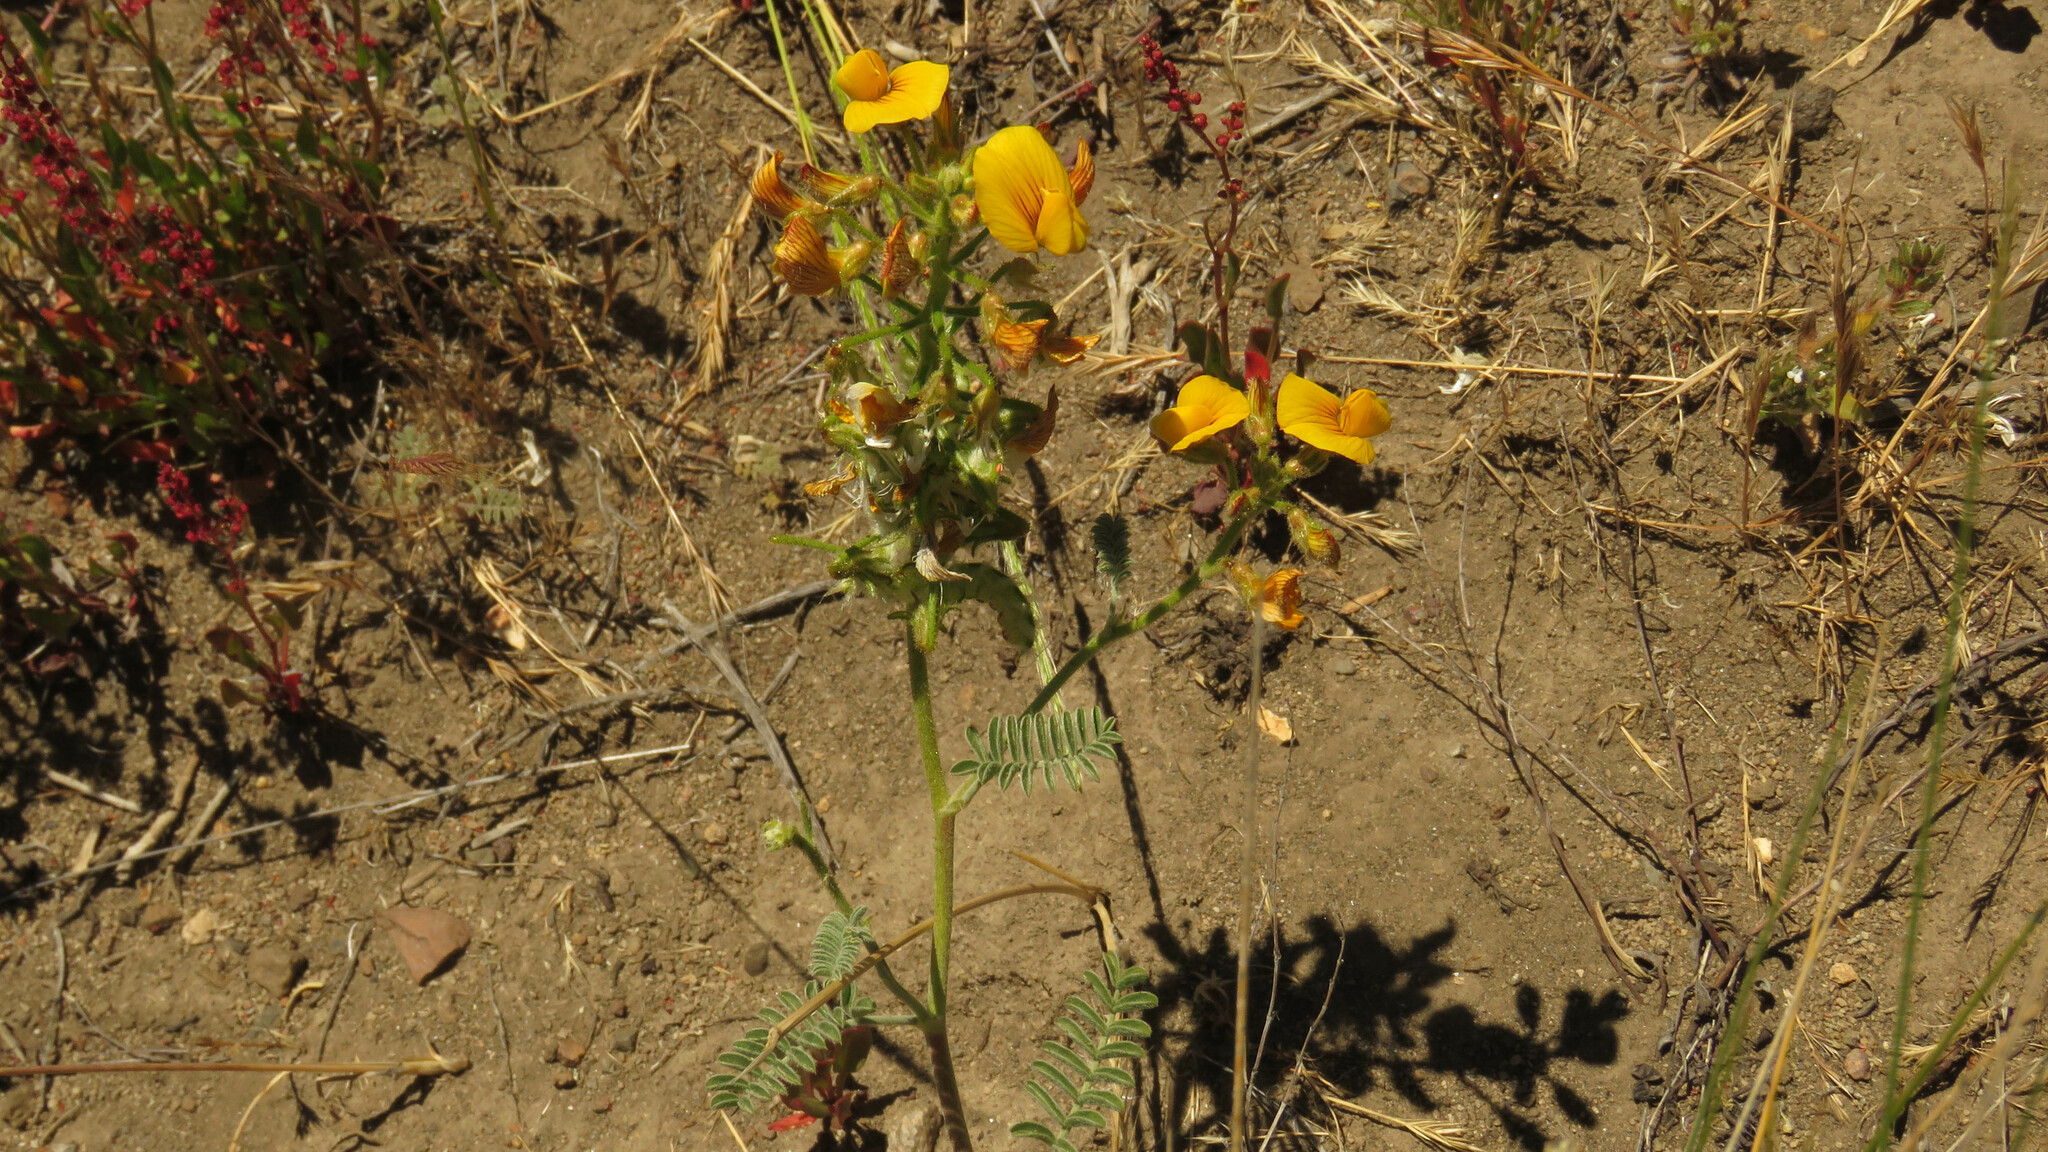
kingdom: Plantae
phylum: Tracheophyta
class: Magnoliopsida
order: Fabales
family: Fabaceae
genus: Adesmia
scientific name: Adesmia corymbosa
